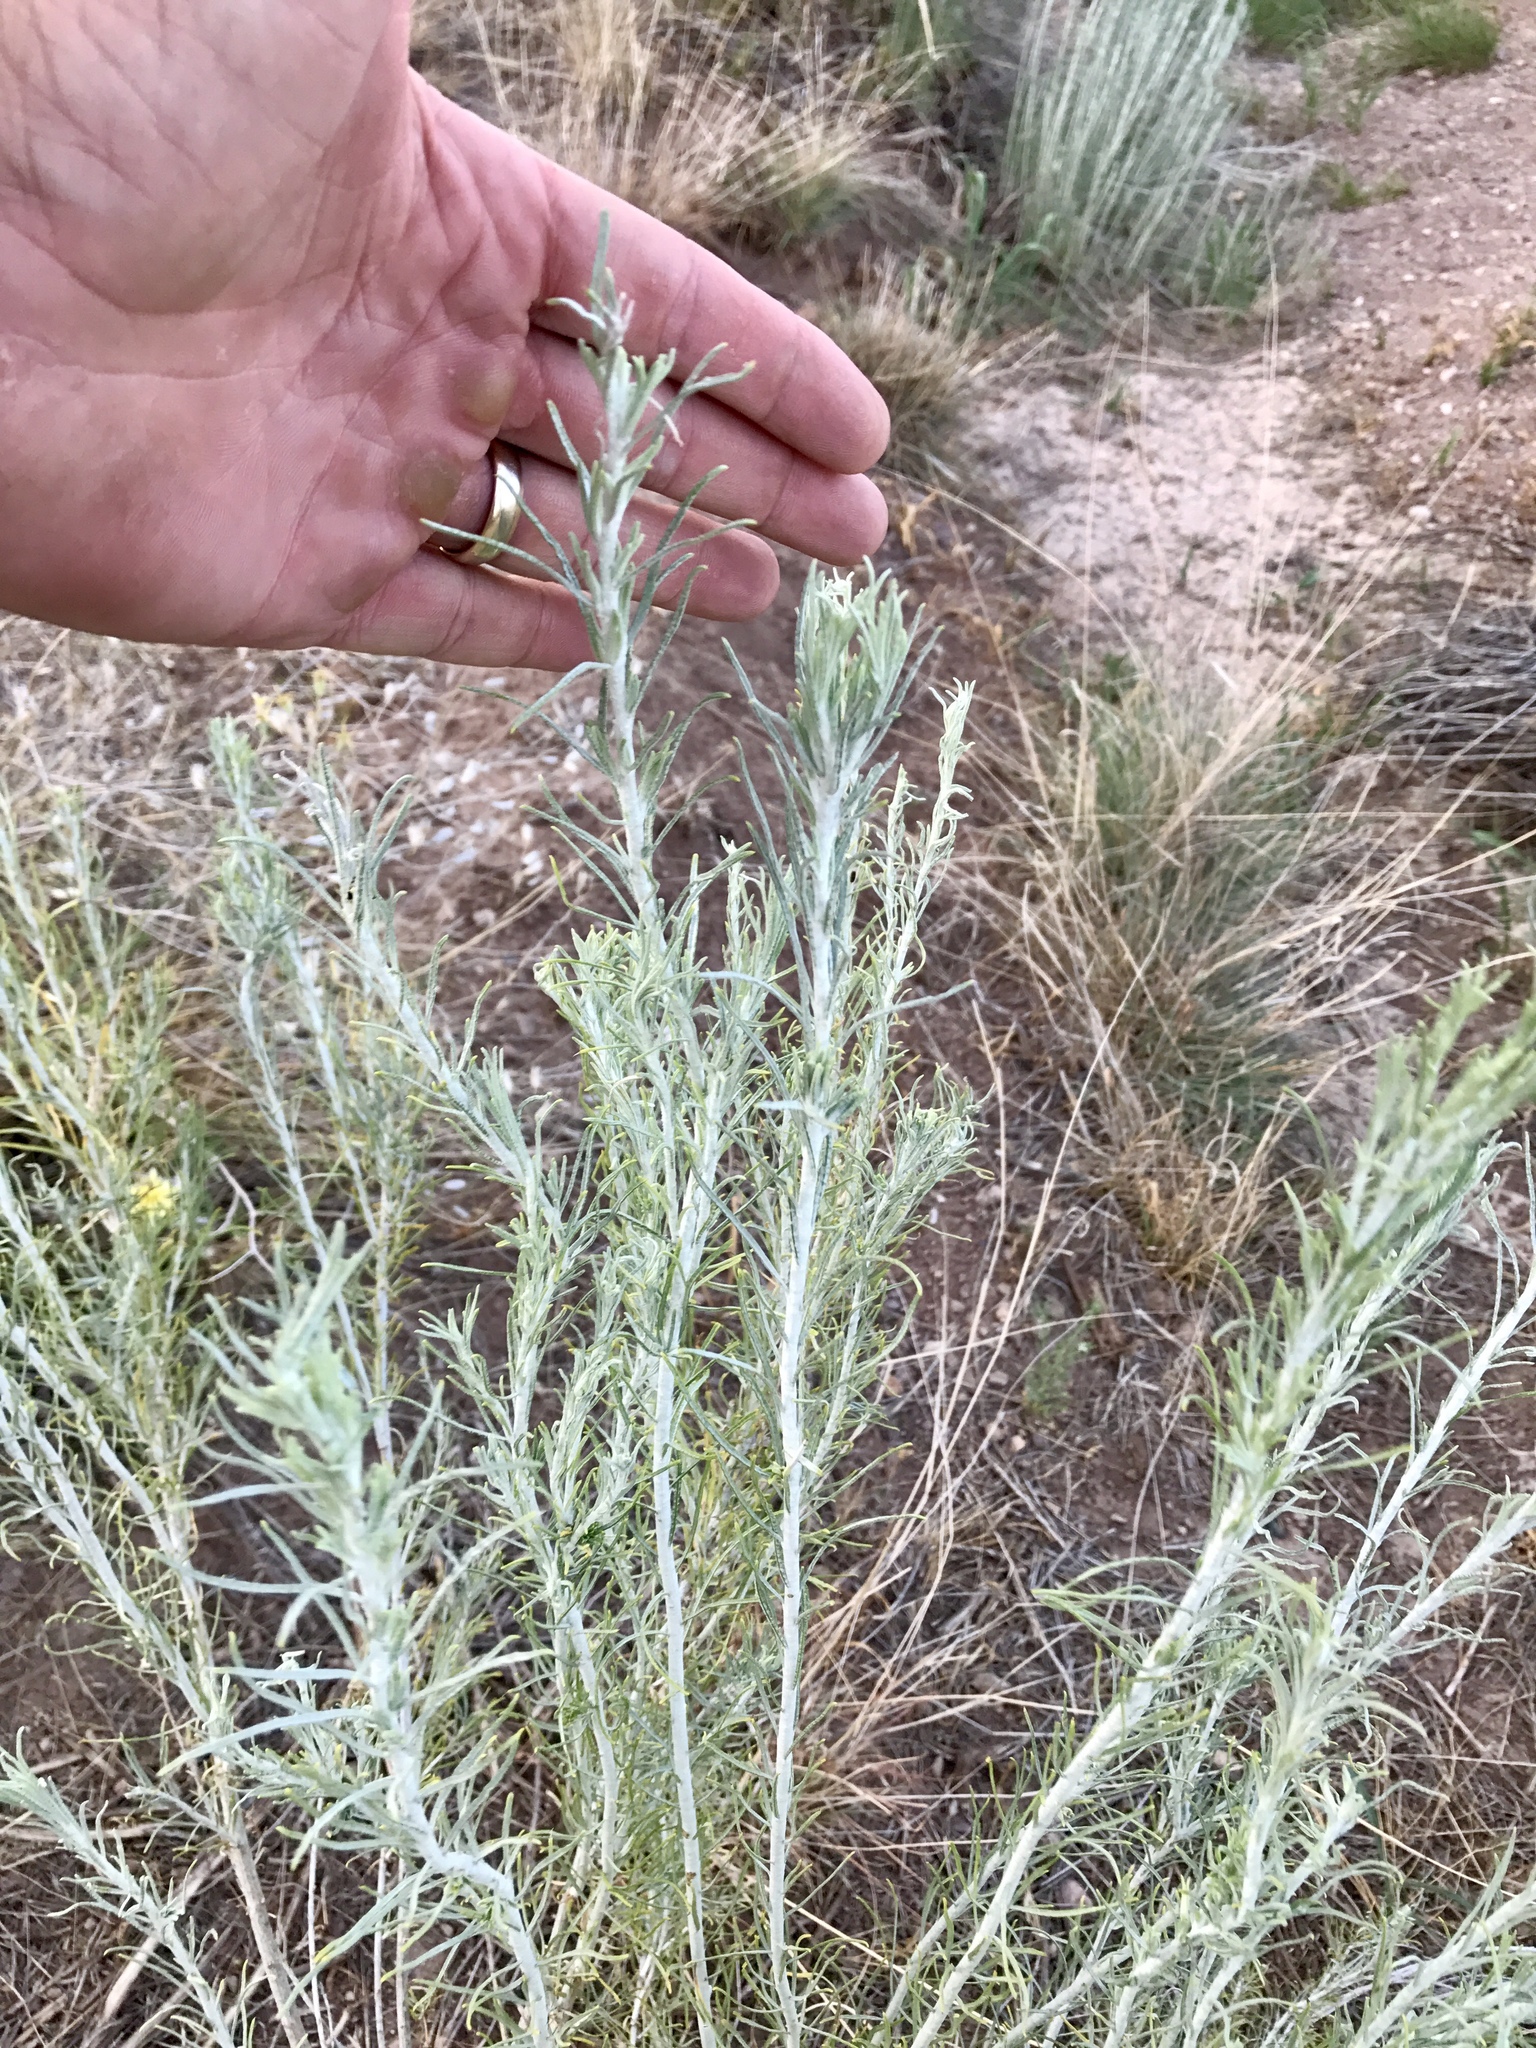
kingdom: Plantae
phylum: Tracheophyta
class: Magnoliopsida
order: Asterales
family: Asteraceae
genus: Ericameria
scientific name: Ericameria nauseosa
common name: Rubber rabbitbrush
